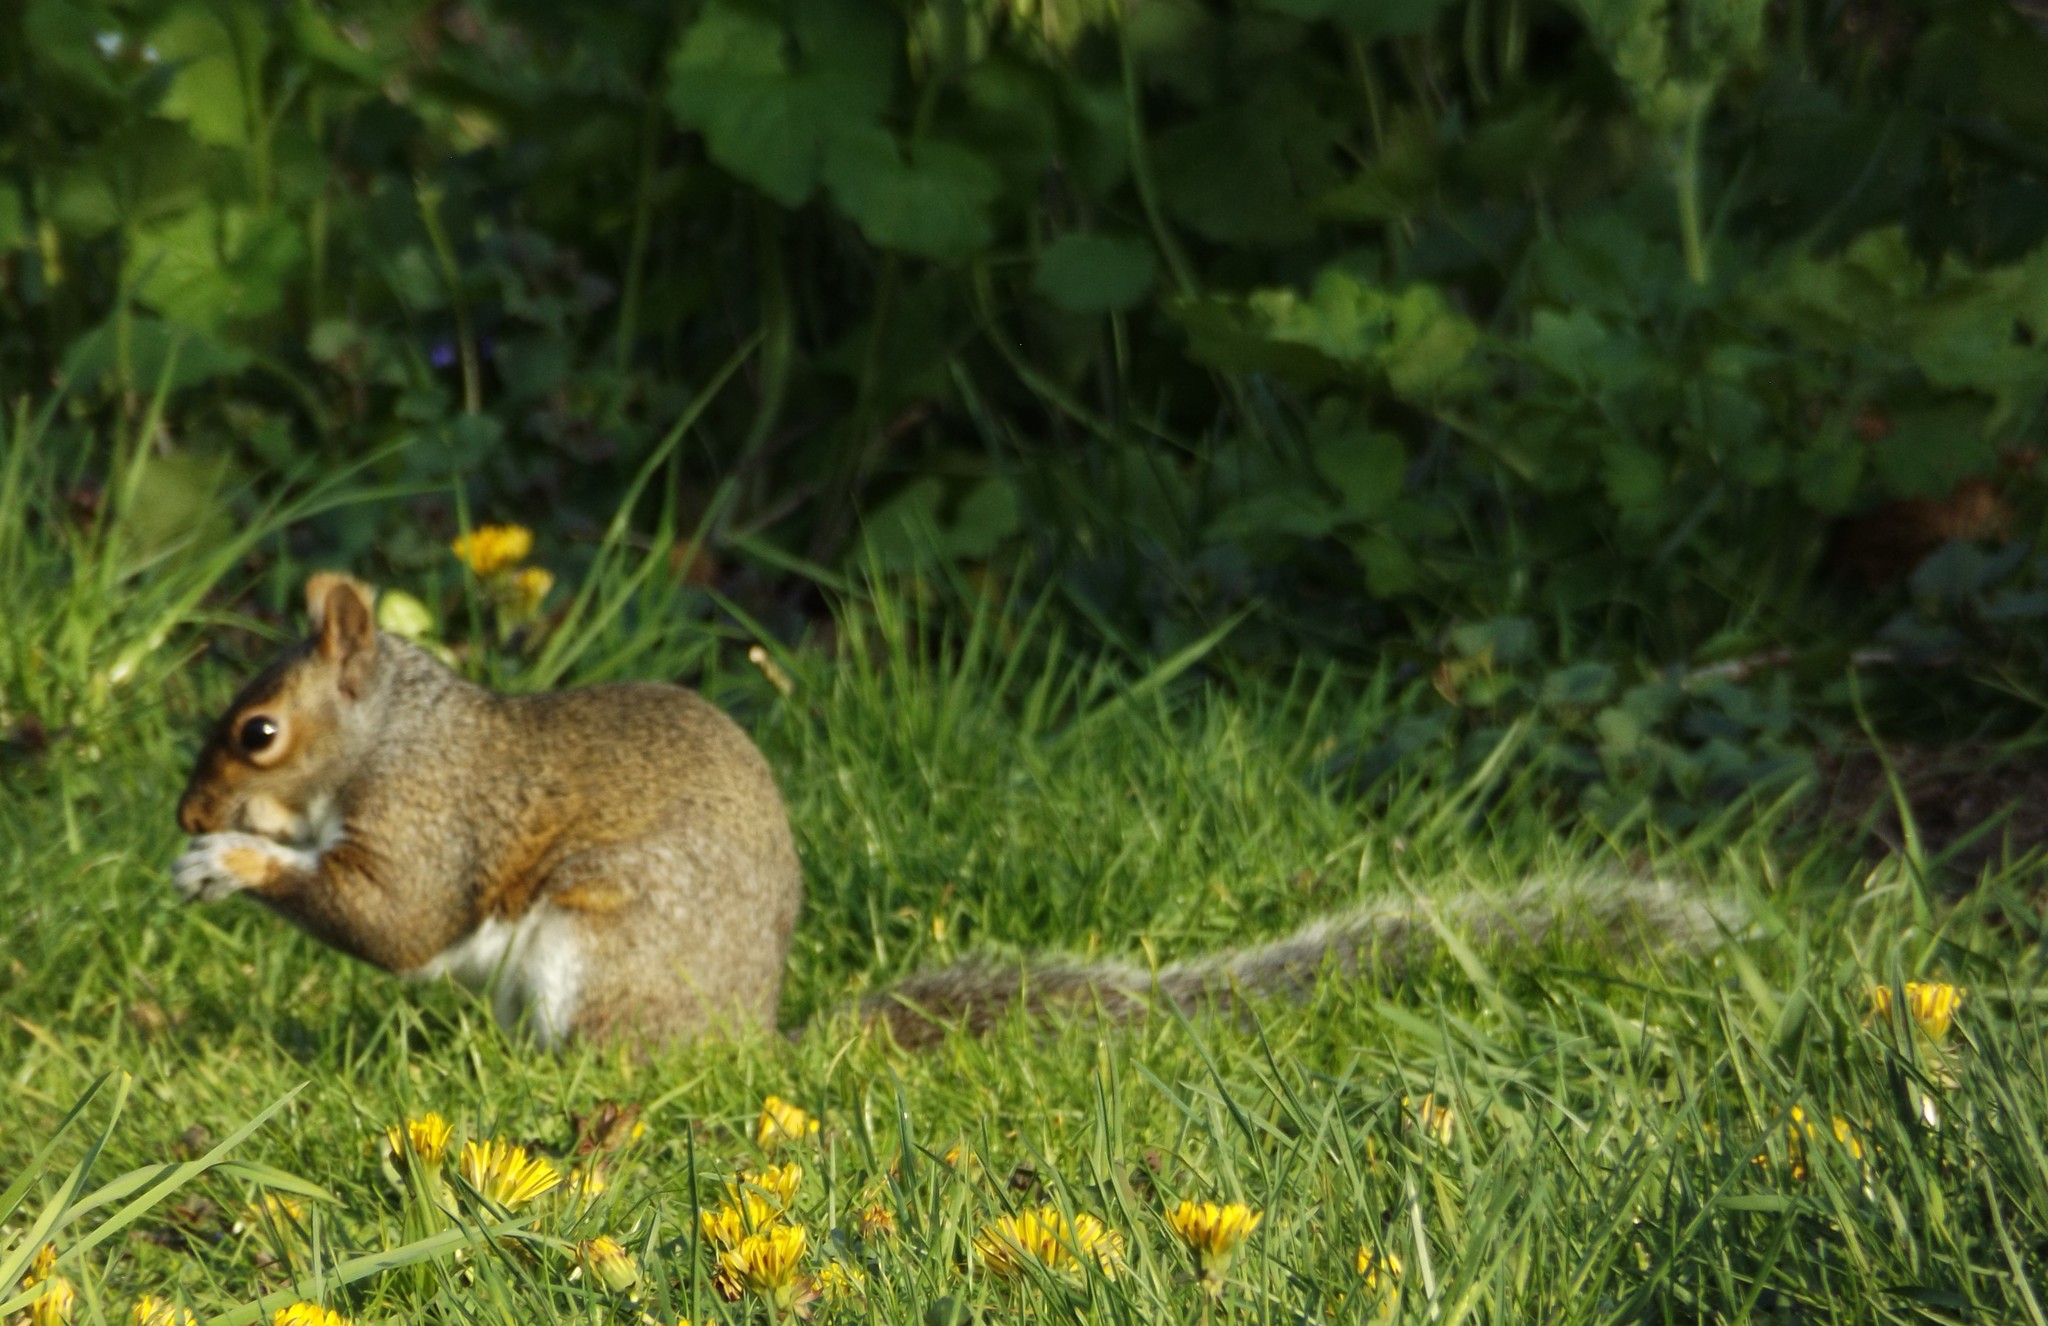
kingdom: Animalia
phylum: Chordata
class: Mammalia
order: Rodentia
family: Sciuridae
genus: Sciurus
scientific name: Sciurus carolinensis
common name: Eastern gray squirrel
